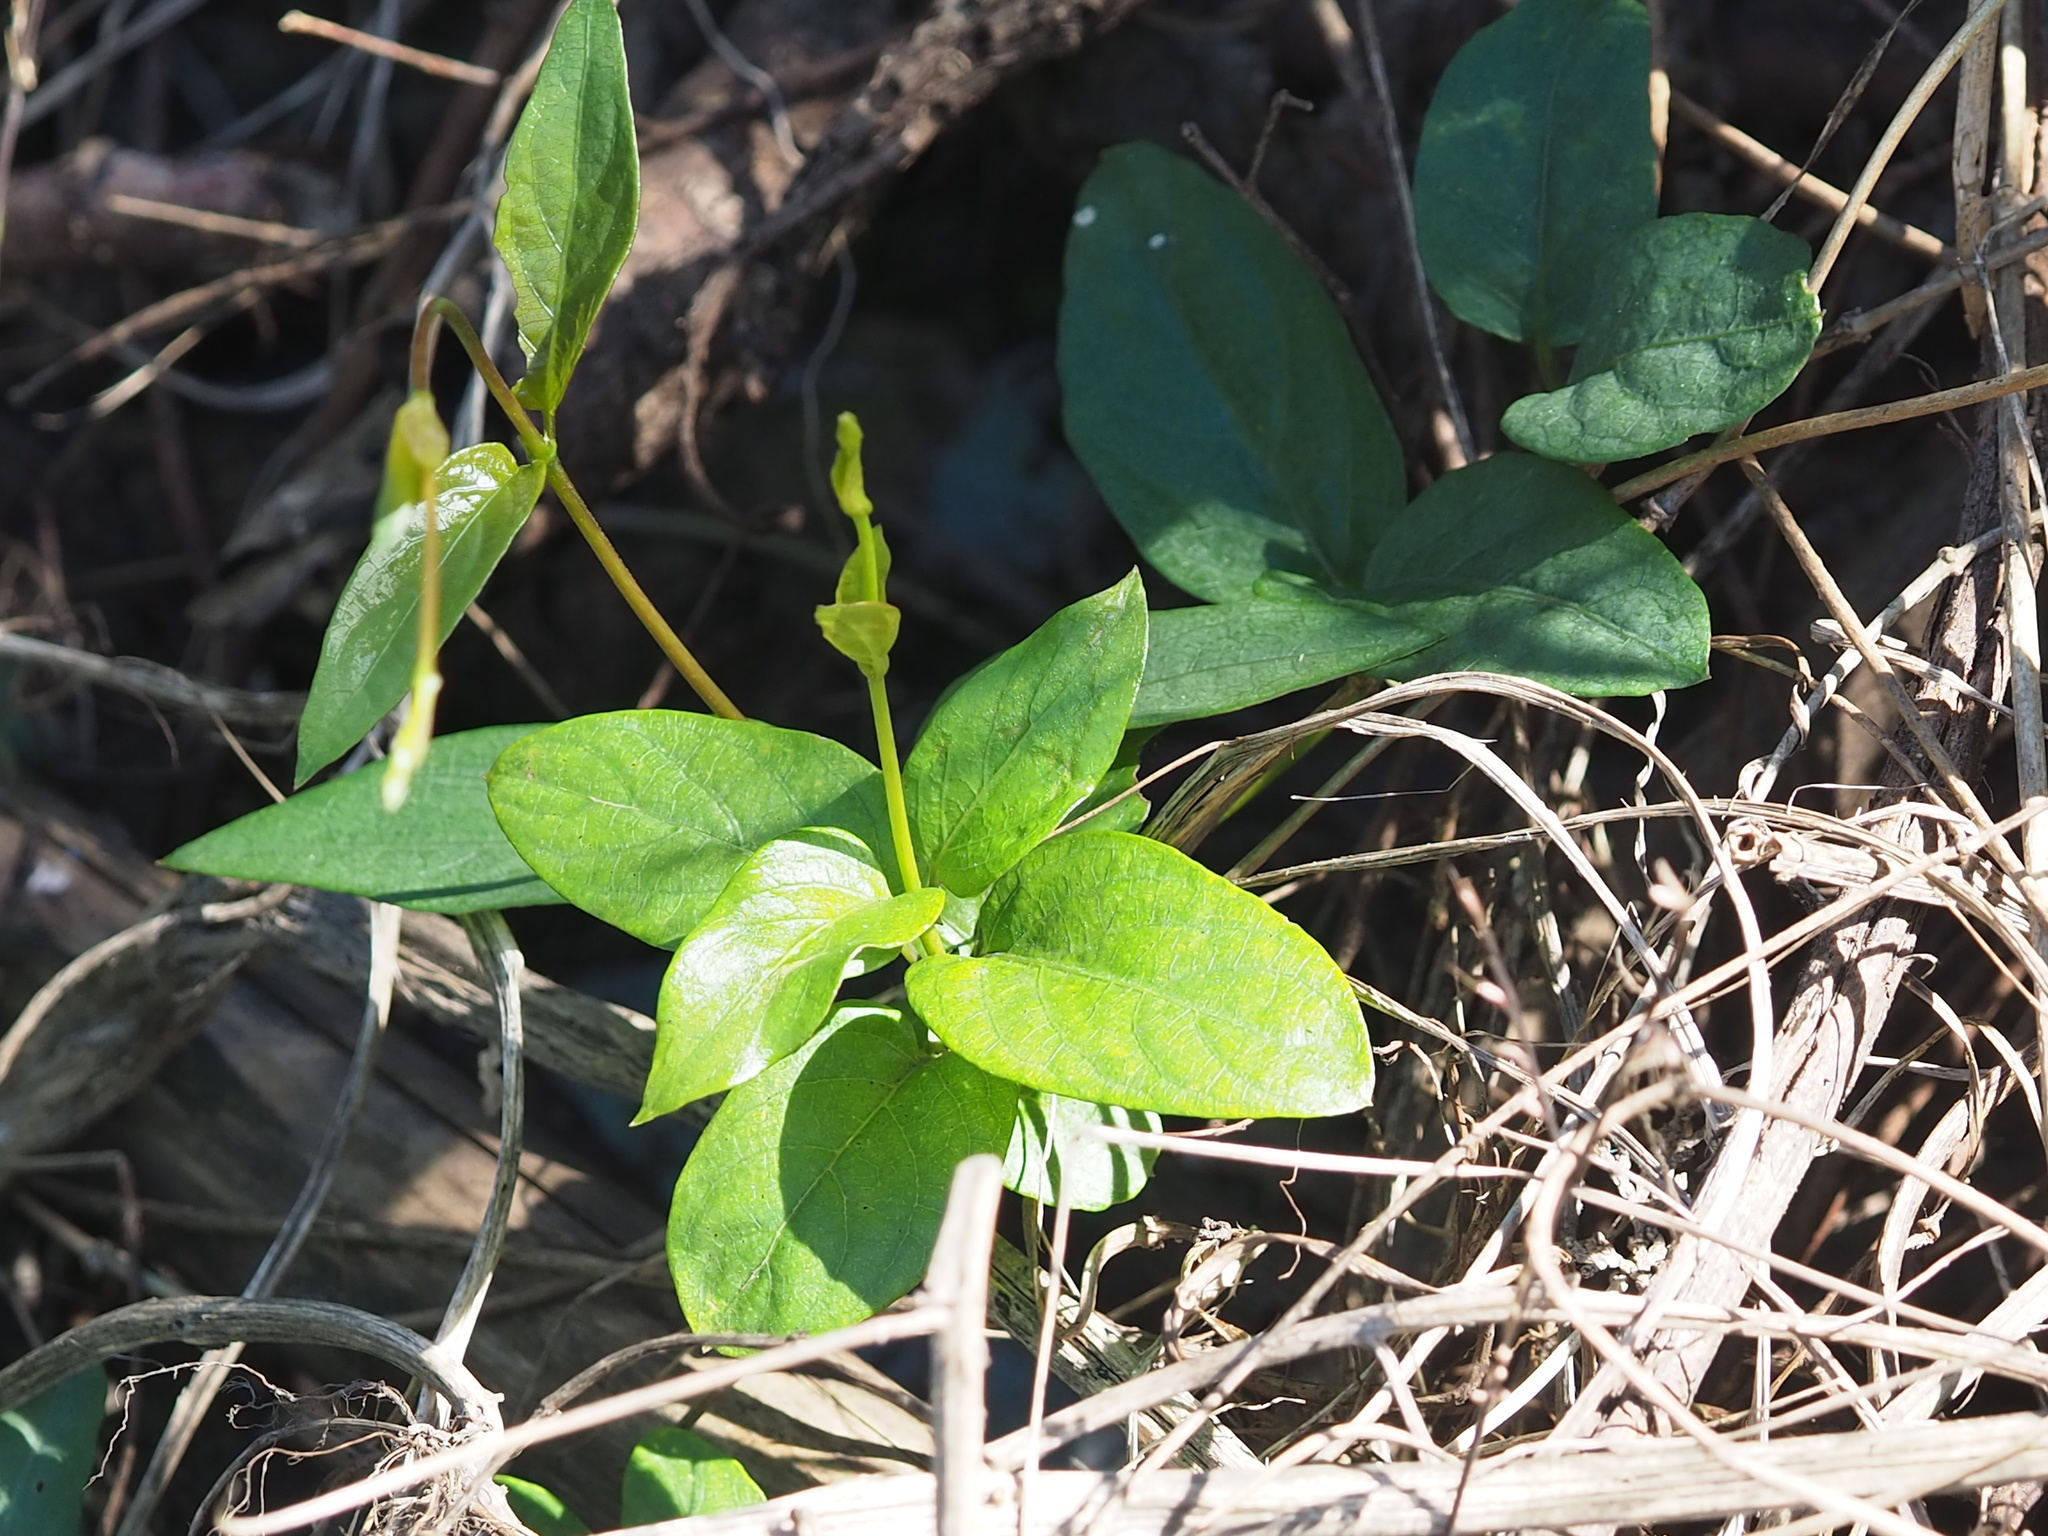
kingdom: Plantae
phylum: Tracheophyta
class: Magnoliopsida
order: Gentianales
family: Rubiaceae
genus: Paederia
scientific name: Paederia foetida
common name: Stinkvine
